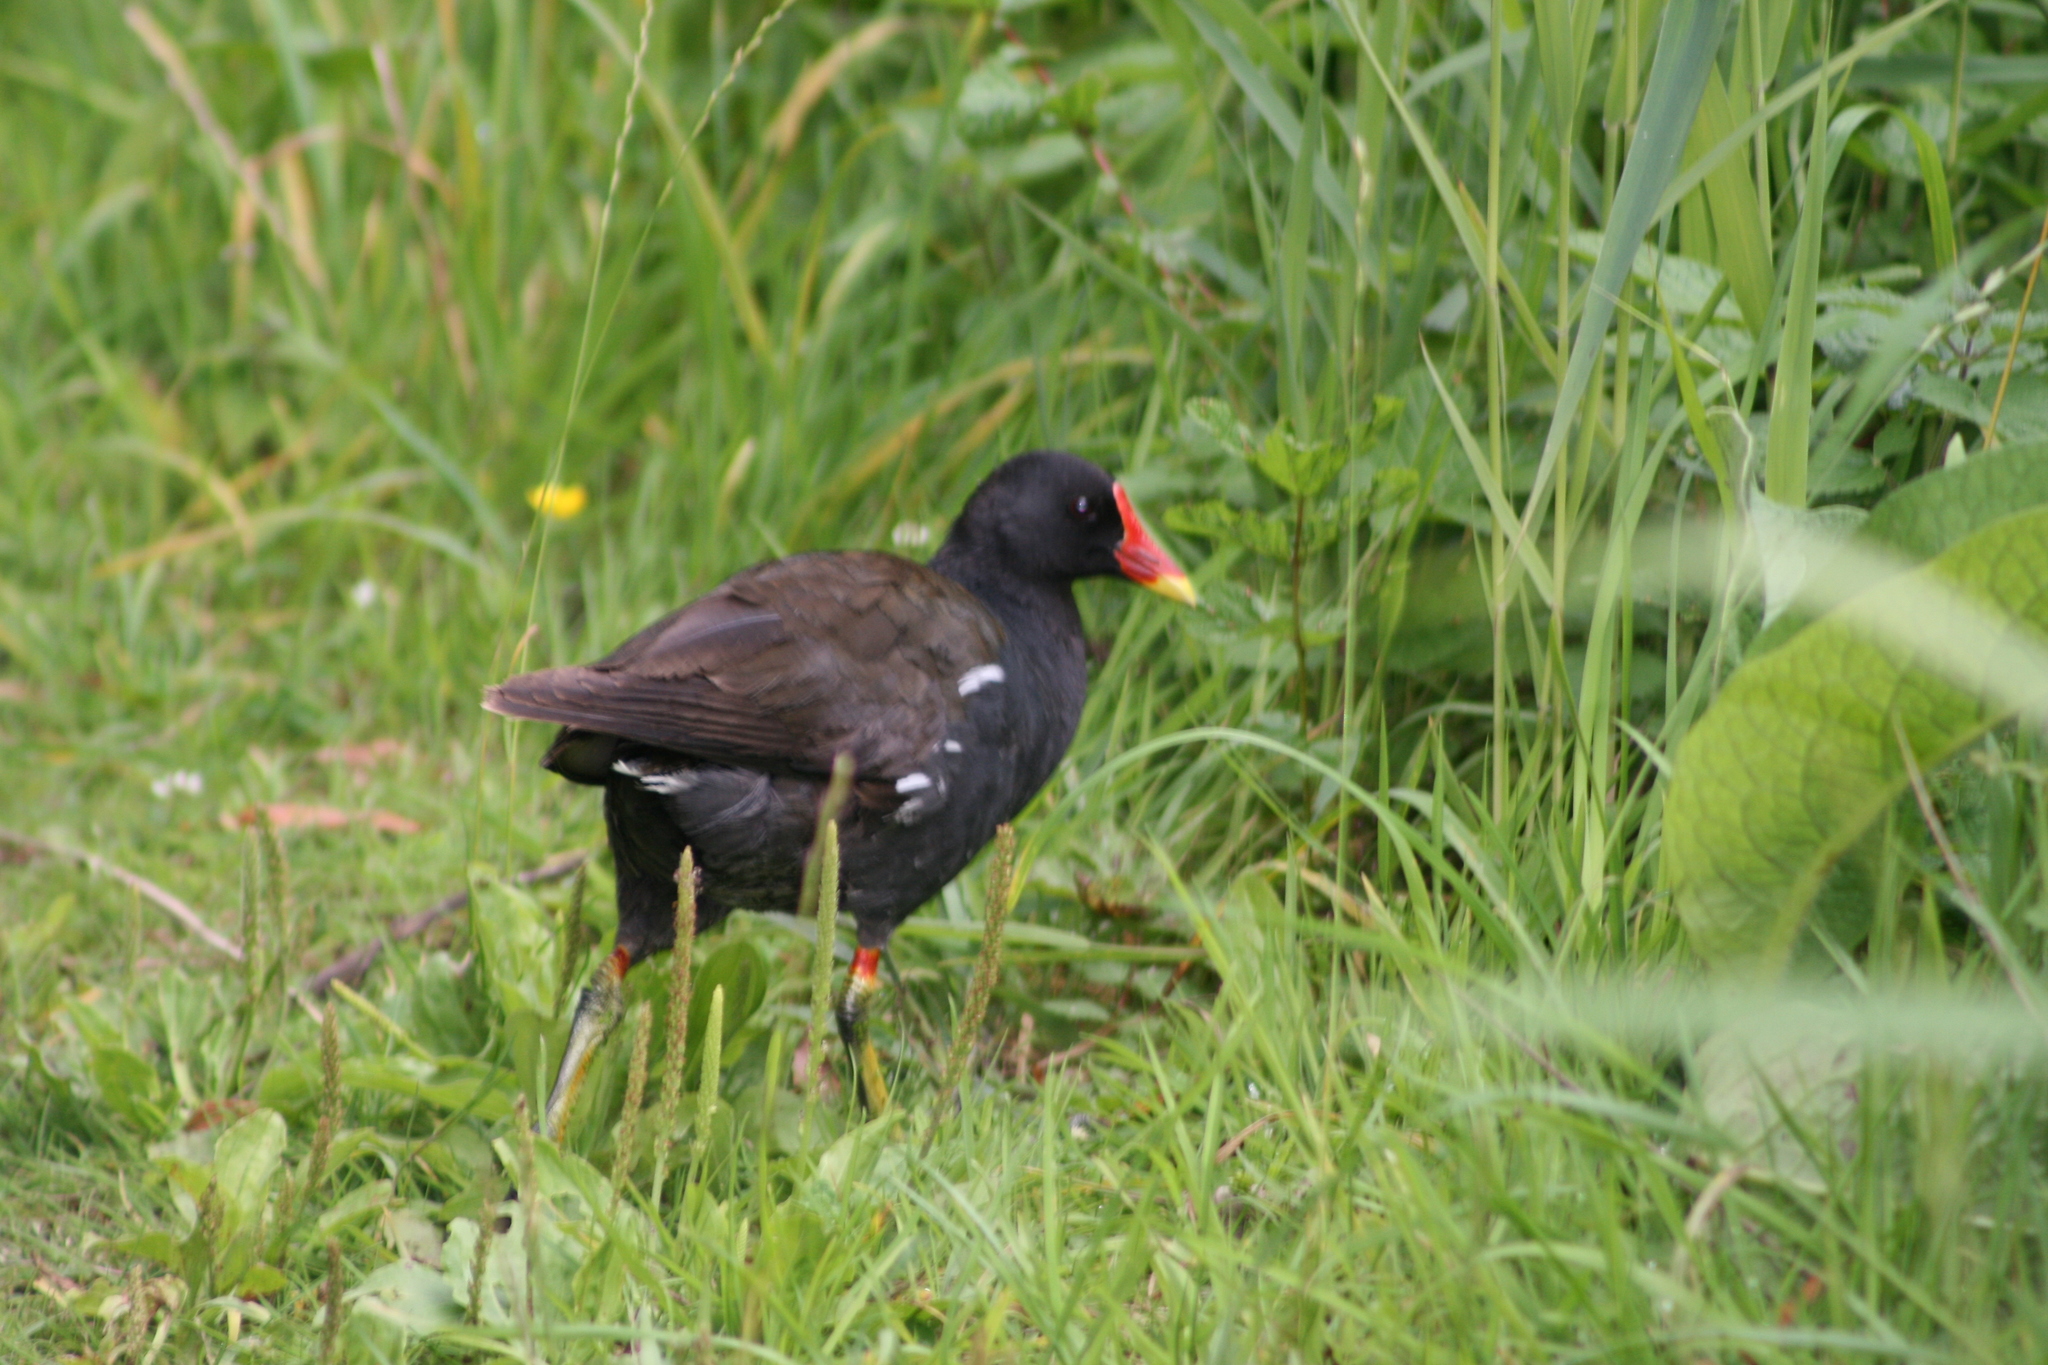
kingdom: Animalia
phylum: Chordata
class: Aves
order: Gruiformes
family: Rallidae
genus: Gallinula
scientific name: Gallinula chloropus
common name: Common moorhen
